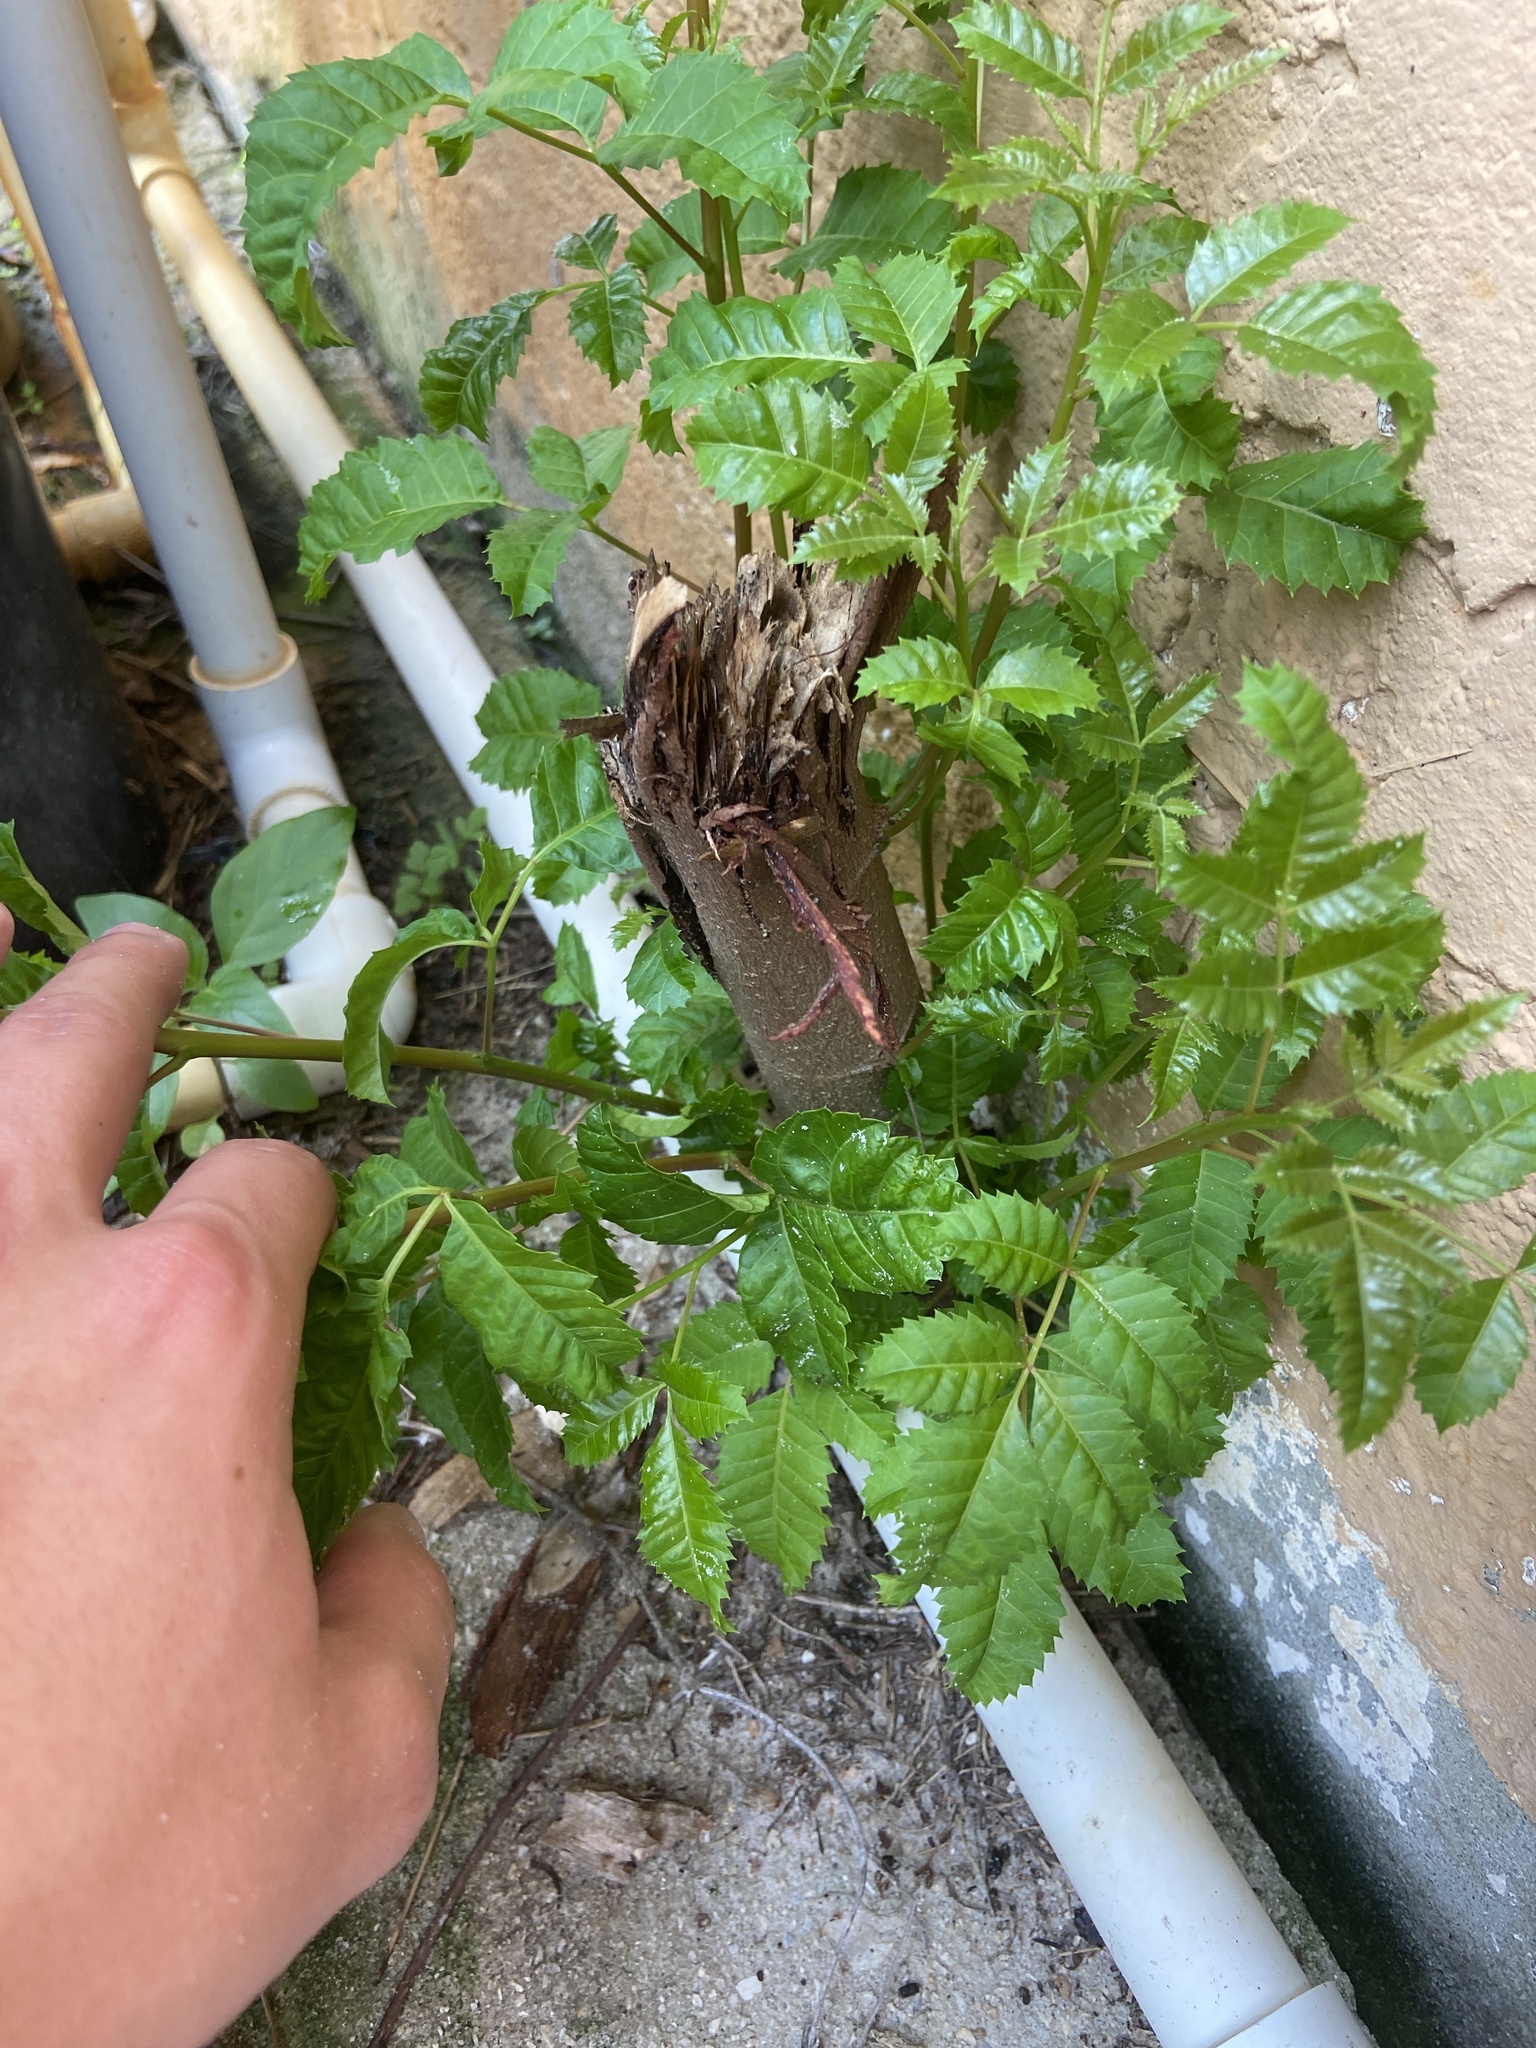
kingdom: Plantae
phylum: Tracheophyta
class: Magnoliopsida
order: Sapindales
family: Anacardiaceae
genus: Schinus
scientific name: Schinus terebinthifolia
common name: Brazilian peppertree
